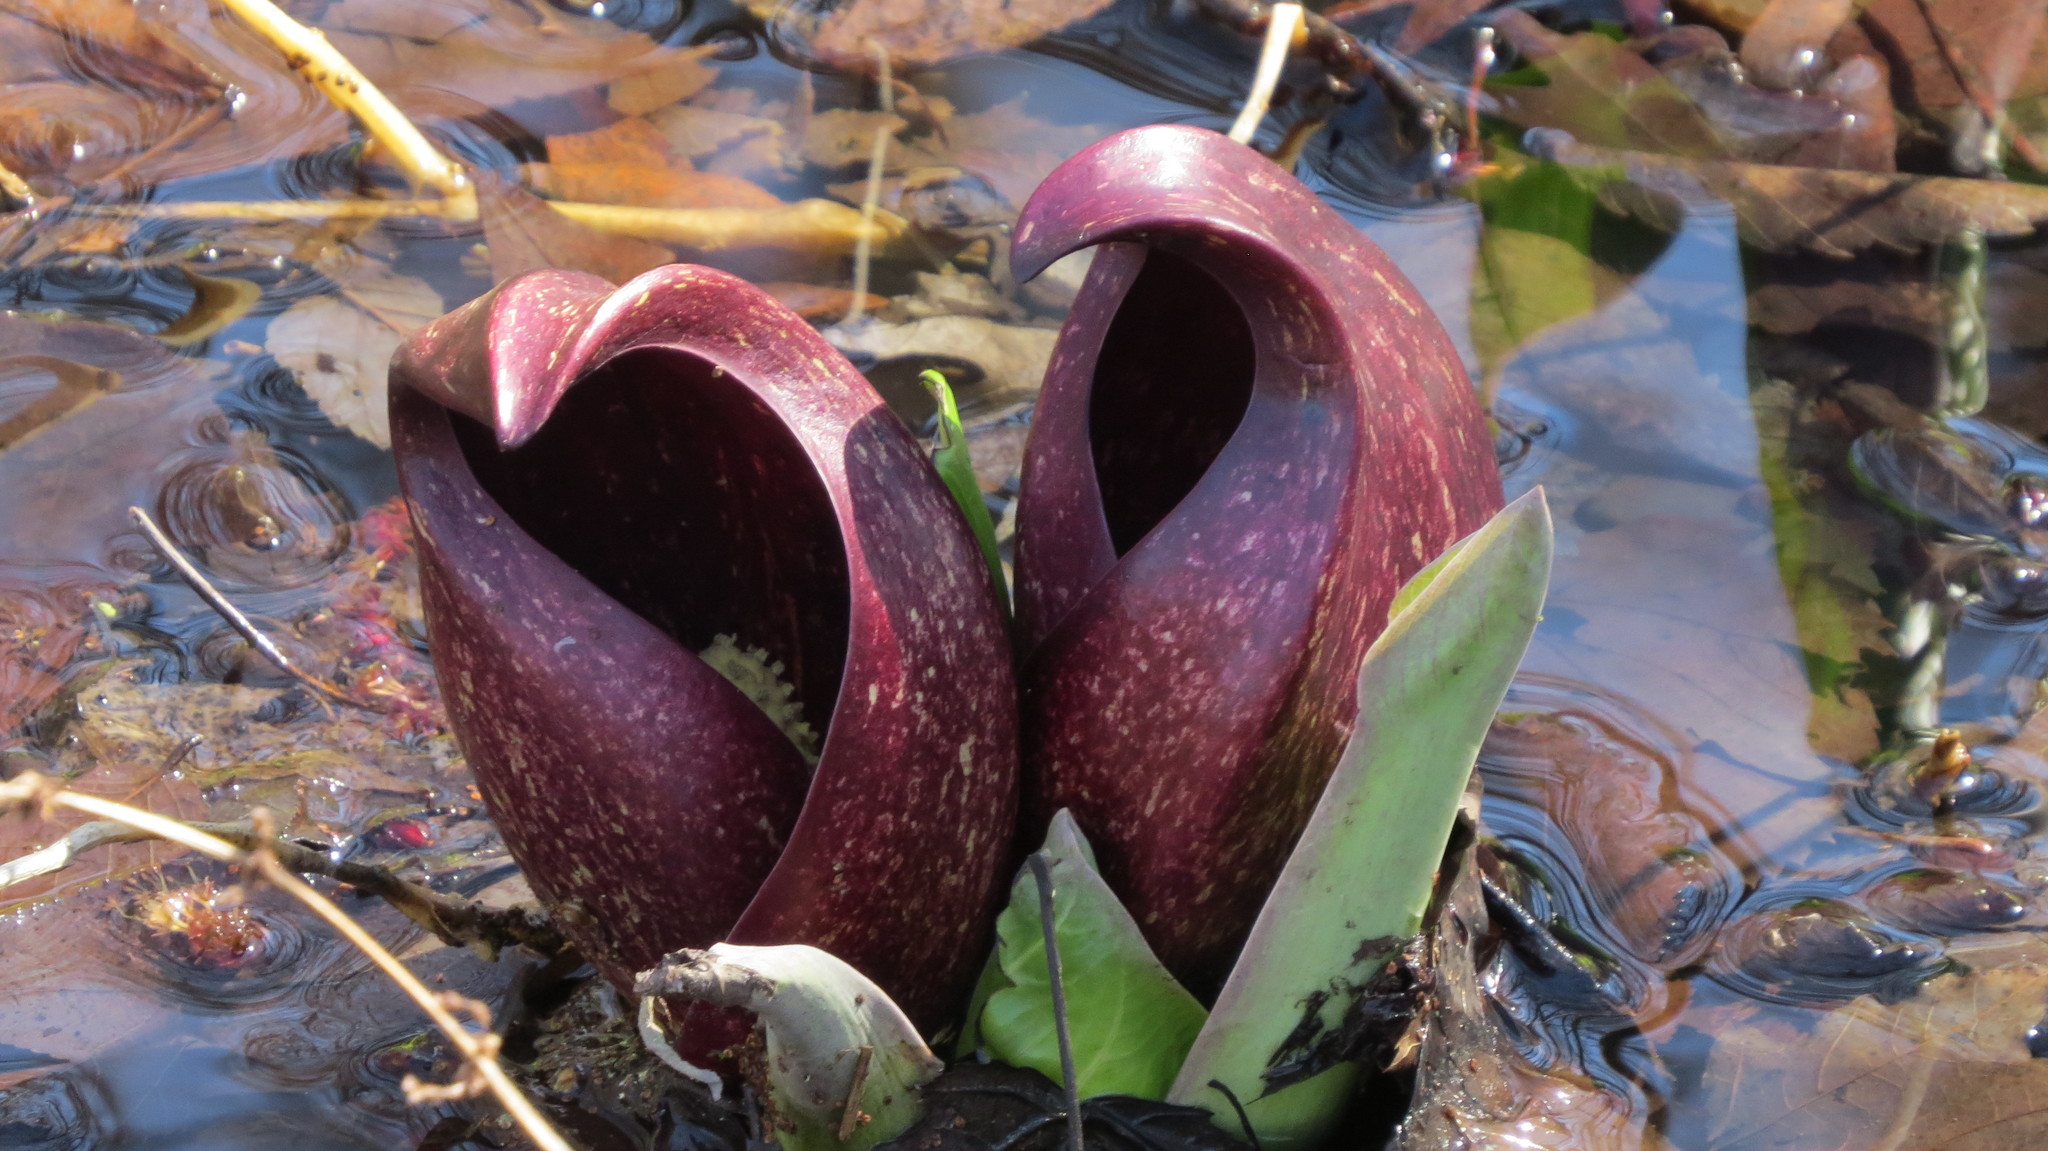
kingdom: Plantae
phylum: Tracheophyta
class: Liliopsida
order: Alismatales
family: Araceae
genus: Symplocarpus
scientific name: Symplocarpus foetidus
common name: Eastern skunk cabbage
